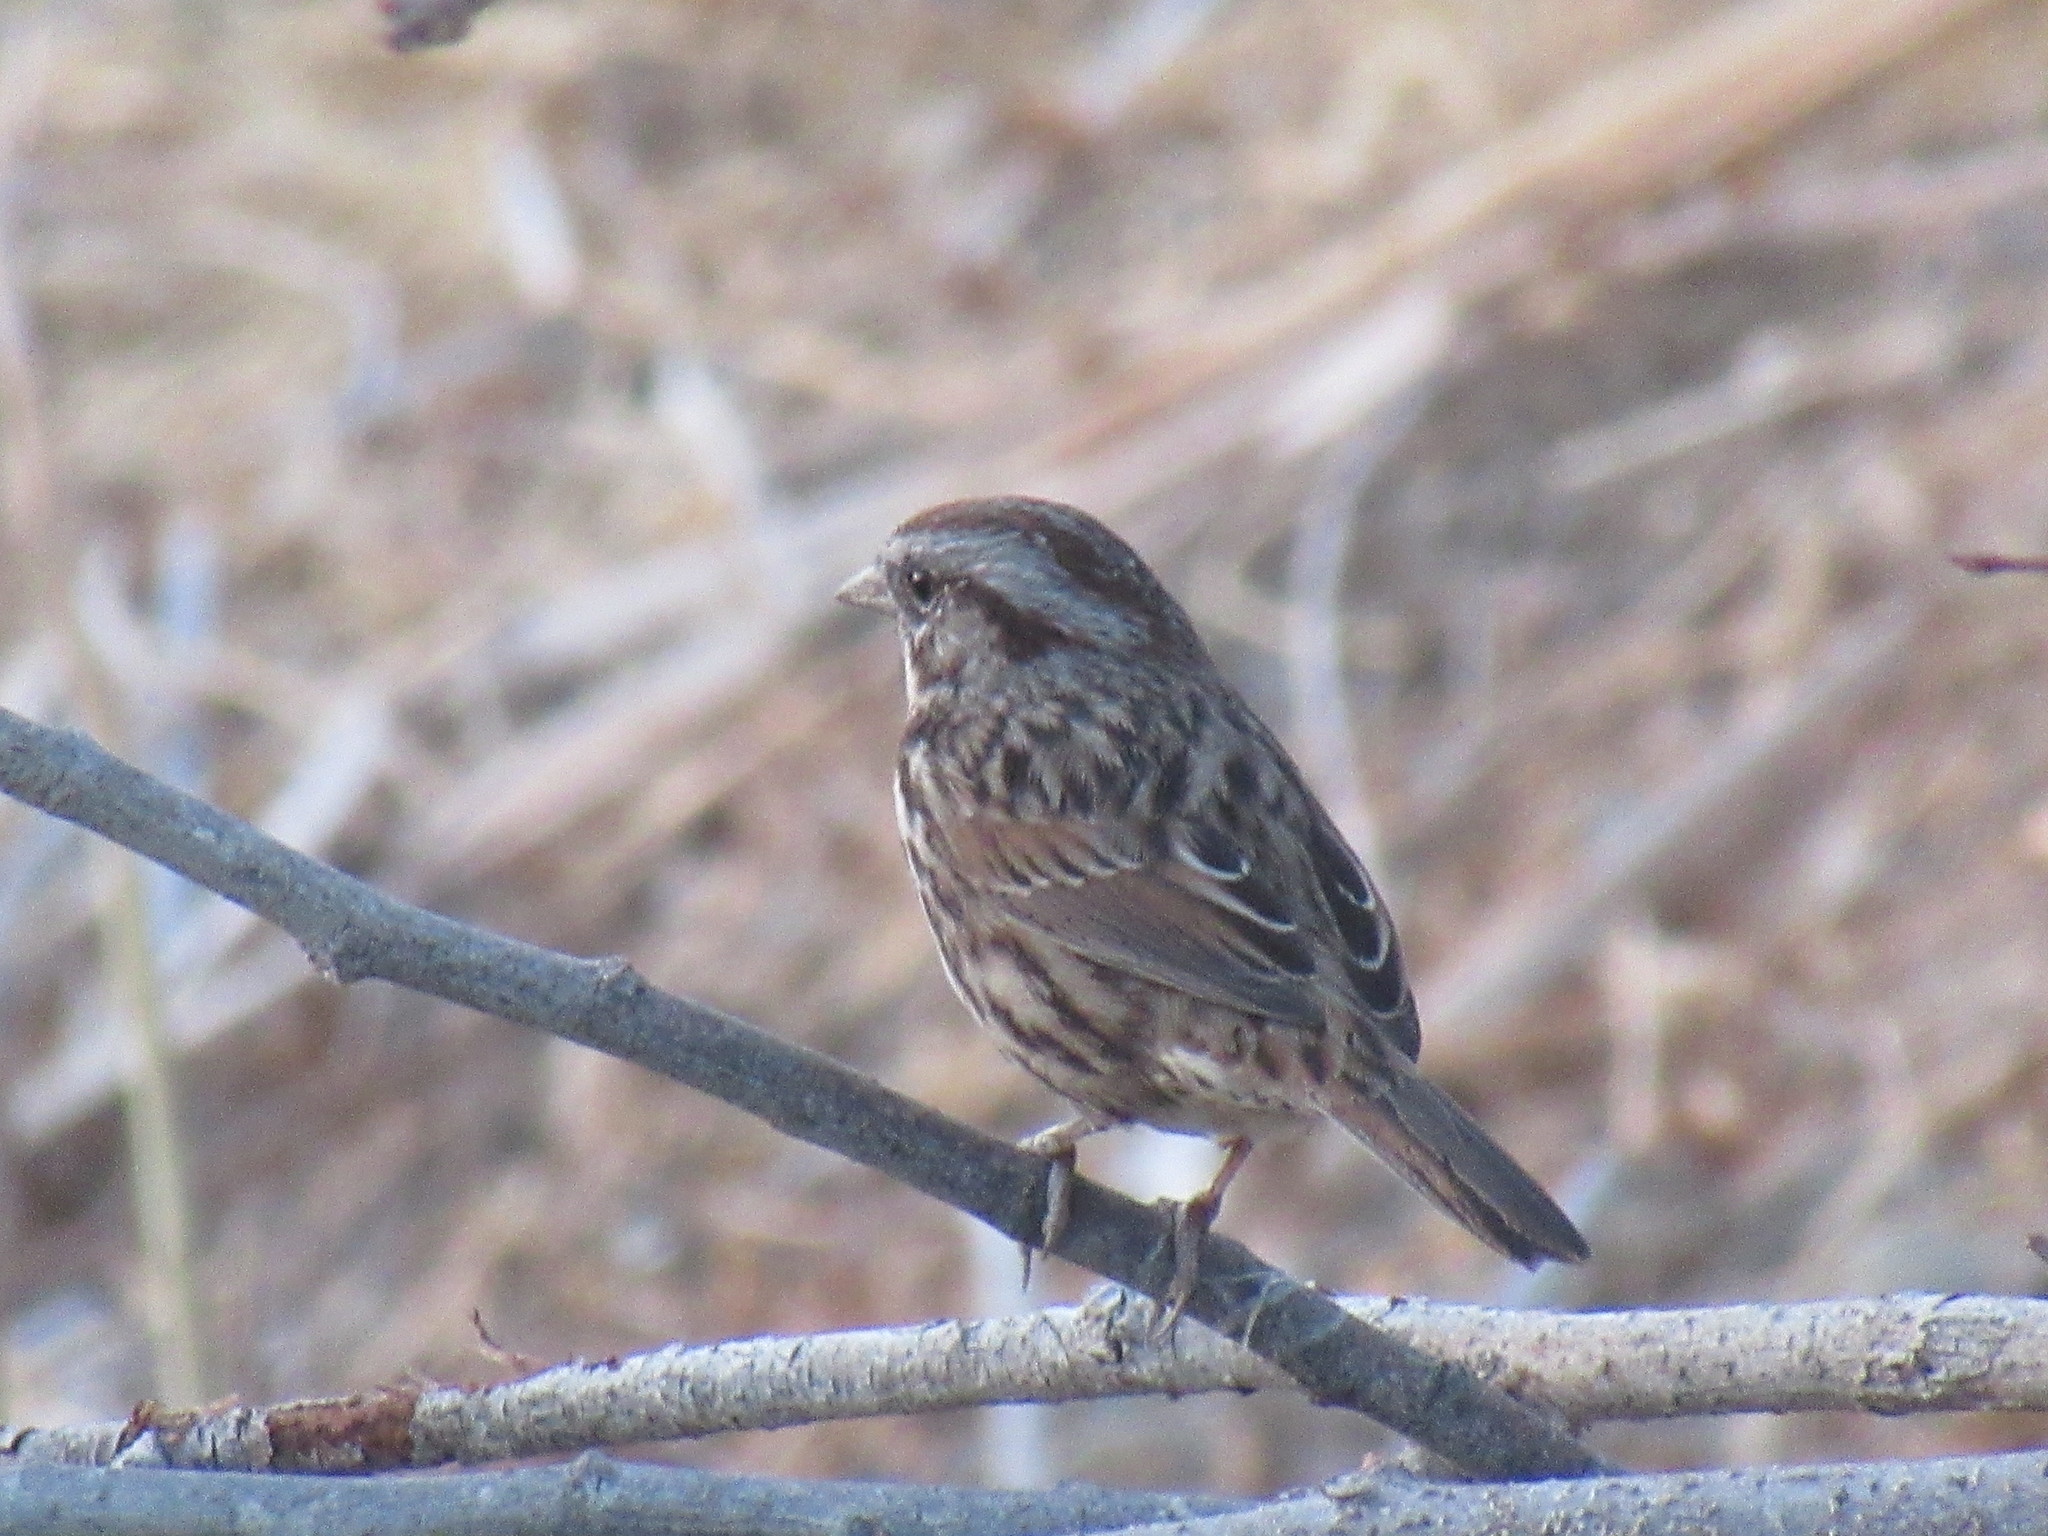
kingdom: Animalia
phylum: Chordata
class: Aves
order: Passeriformes
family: Passerellidae
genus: Melospiza
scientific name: Melospiza melodia
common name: Song sparrow
